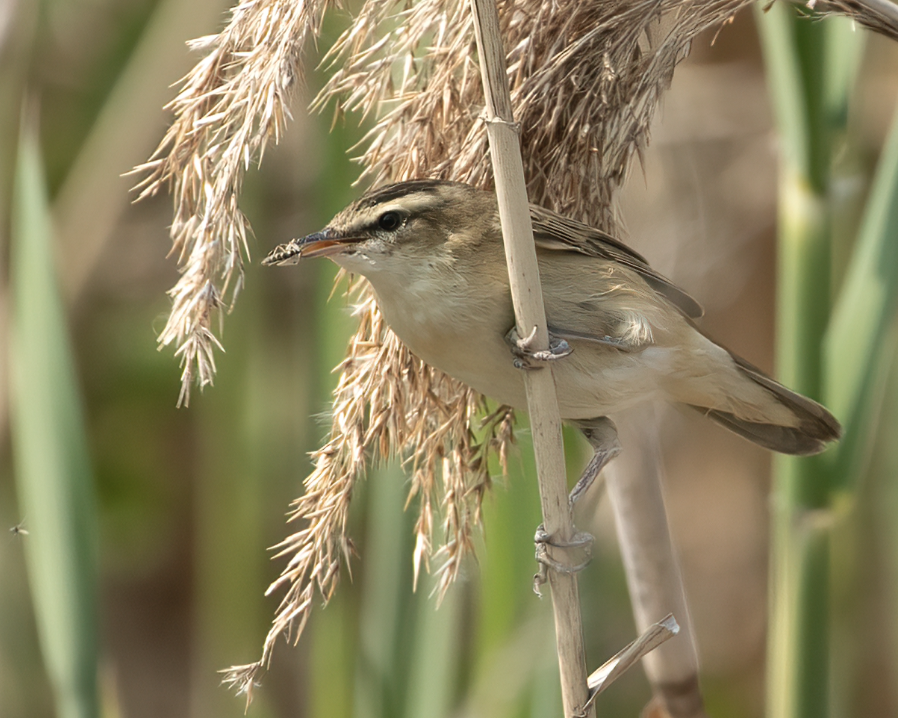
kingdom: Animalia
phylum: Chordata
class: Aves
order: Passeriformes
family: Acrocephalidae
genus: Acrocephalus
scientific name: Acrocephalus schoenobaenus
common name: Sedge warbler
